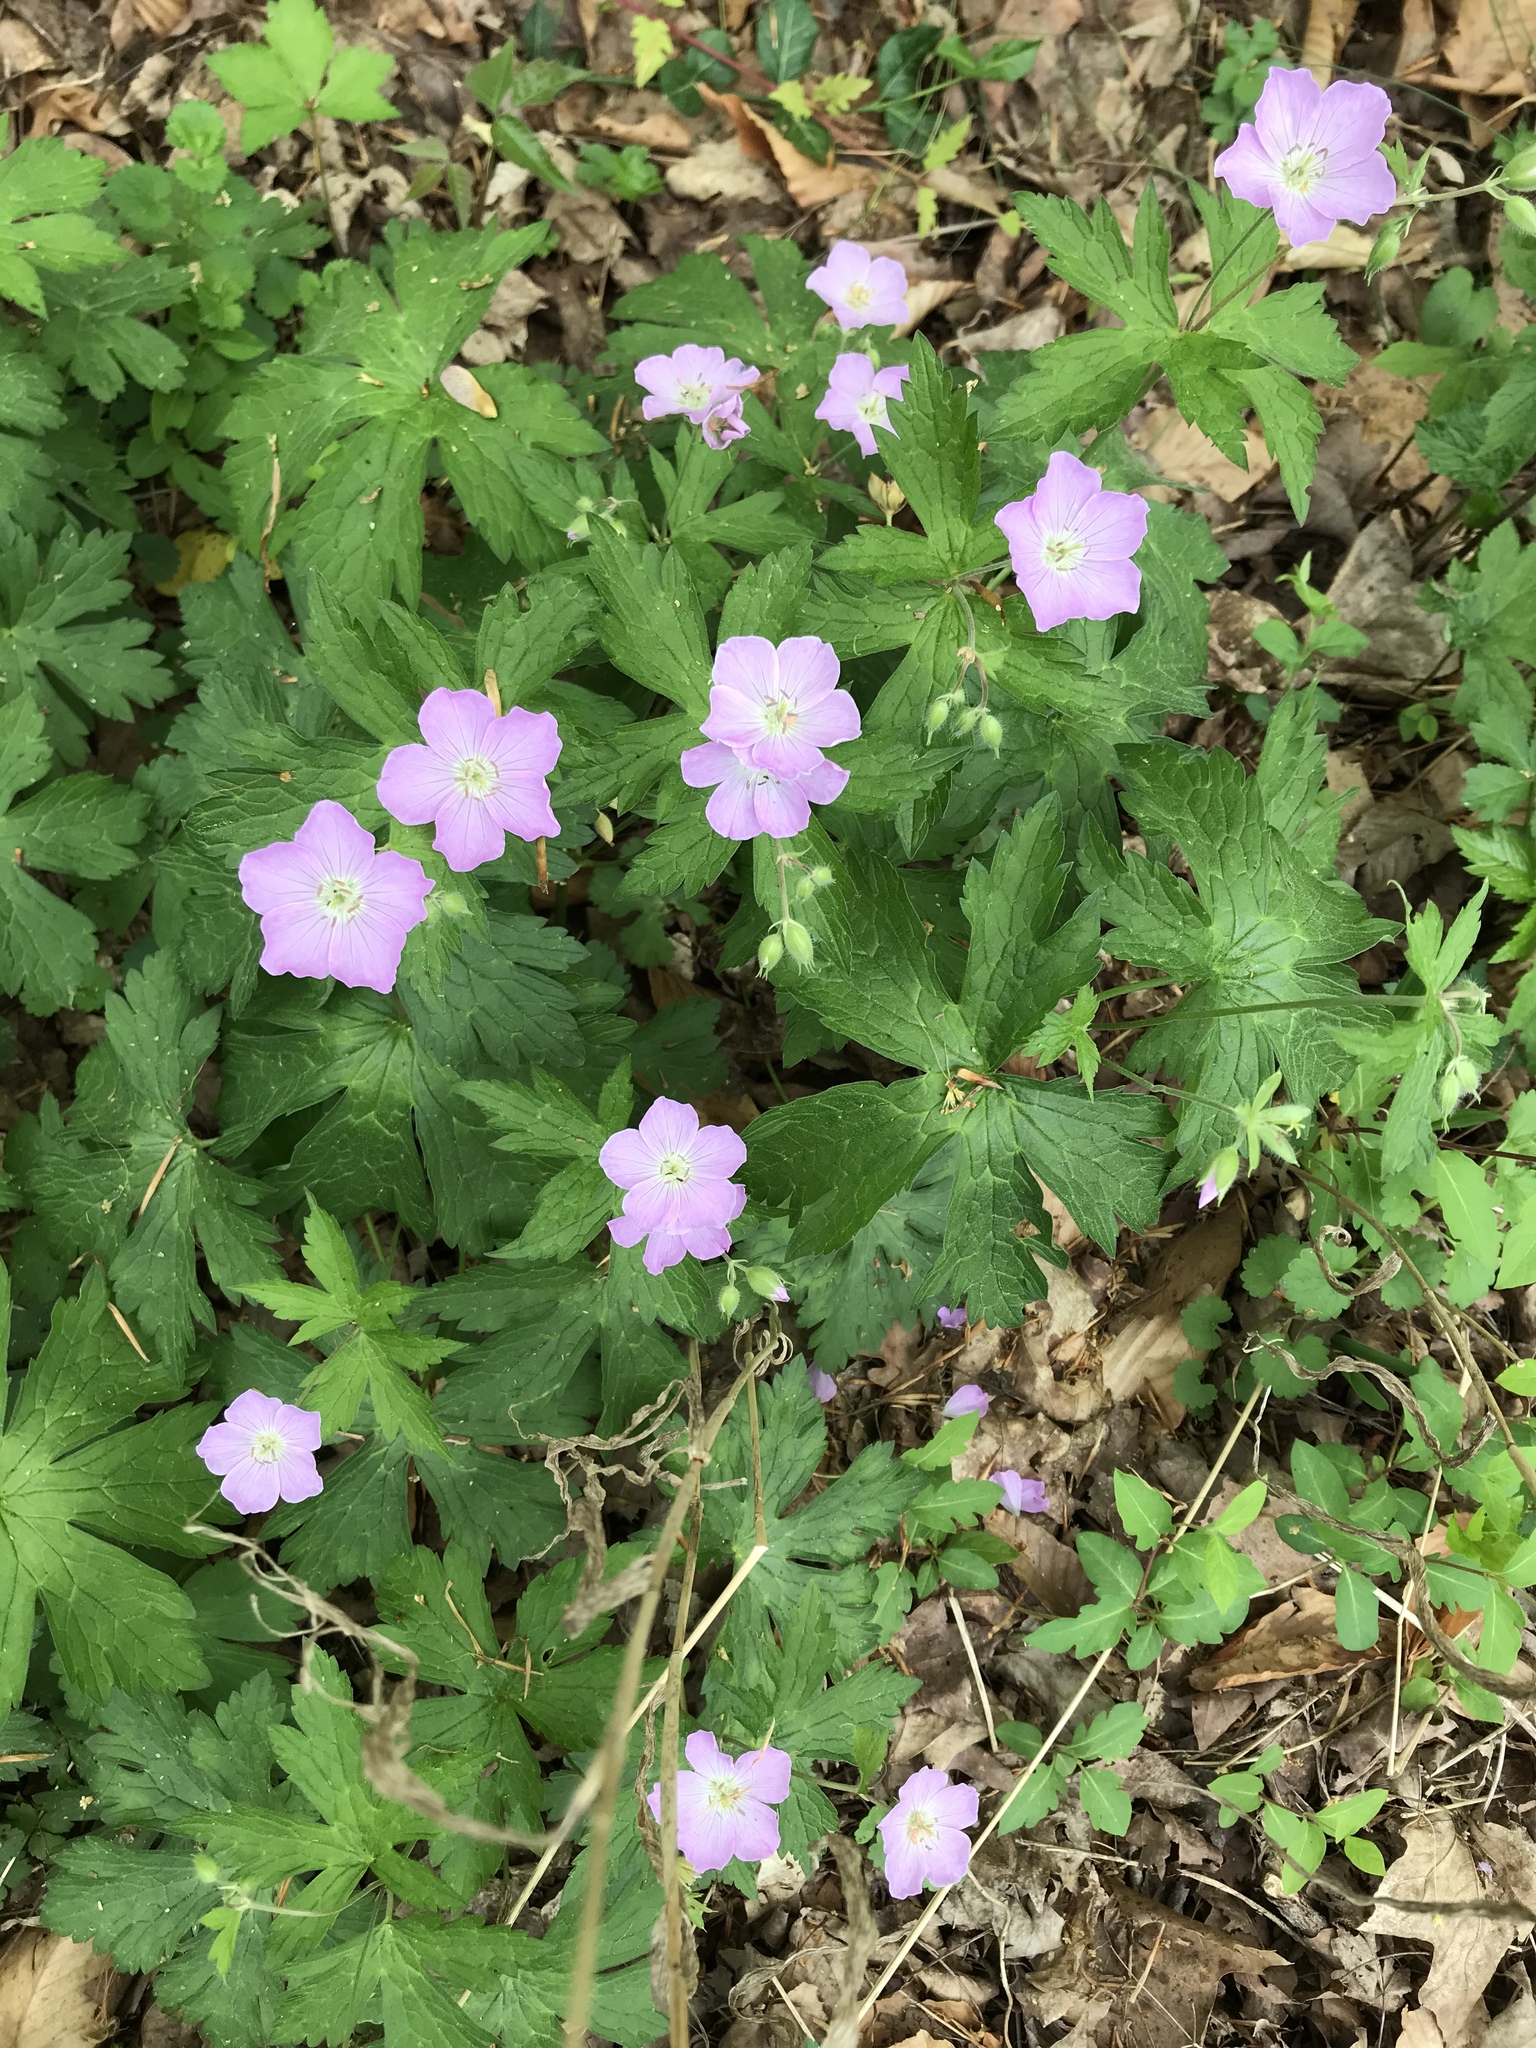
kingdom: Plantae
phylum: Tracheophyta
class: Magnoliopsida
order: Geraniales
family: Geraniaceae
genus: Geranium
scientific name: Geranium maculatum
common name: Spotted geranium
